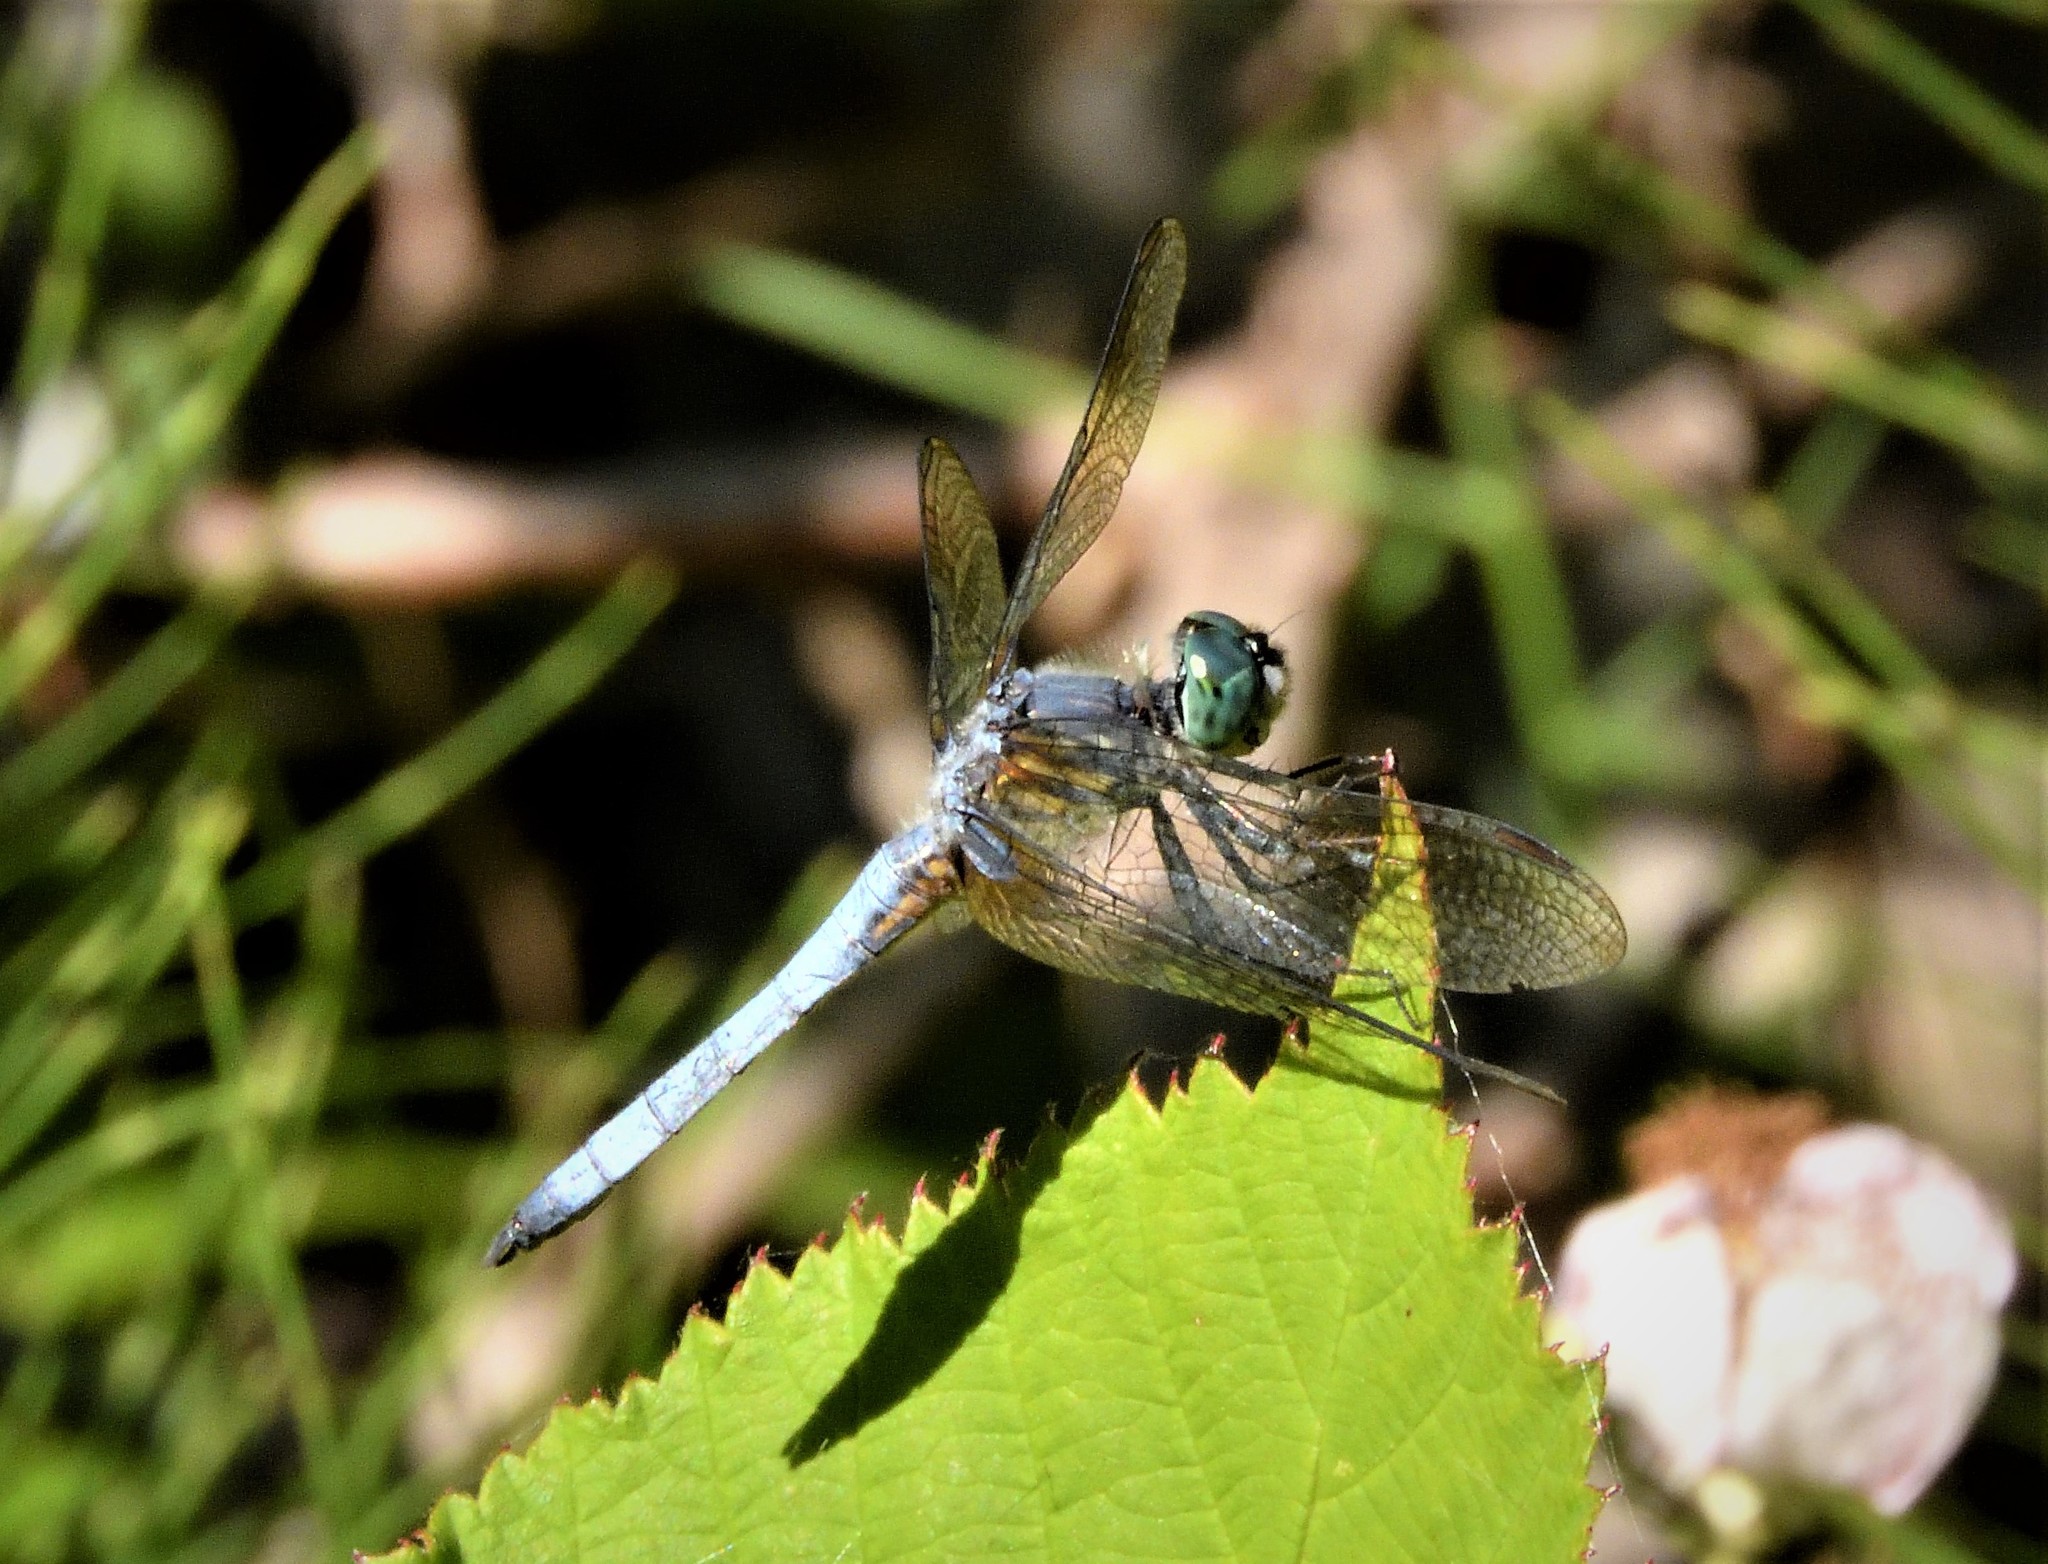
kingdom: Animalia
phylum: Arthropoda
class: Insecta
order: Odonata
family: Libellulidae
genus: Pachydiplax
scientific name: Pachydiplax longipennis
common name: Blue dasher
